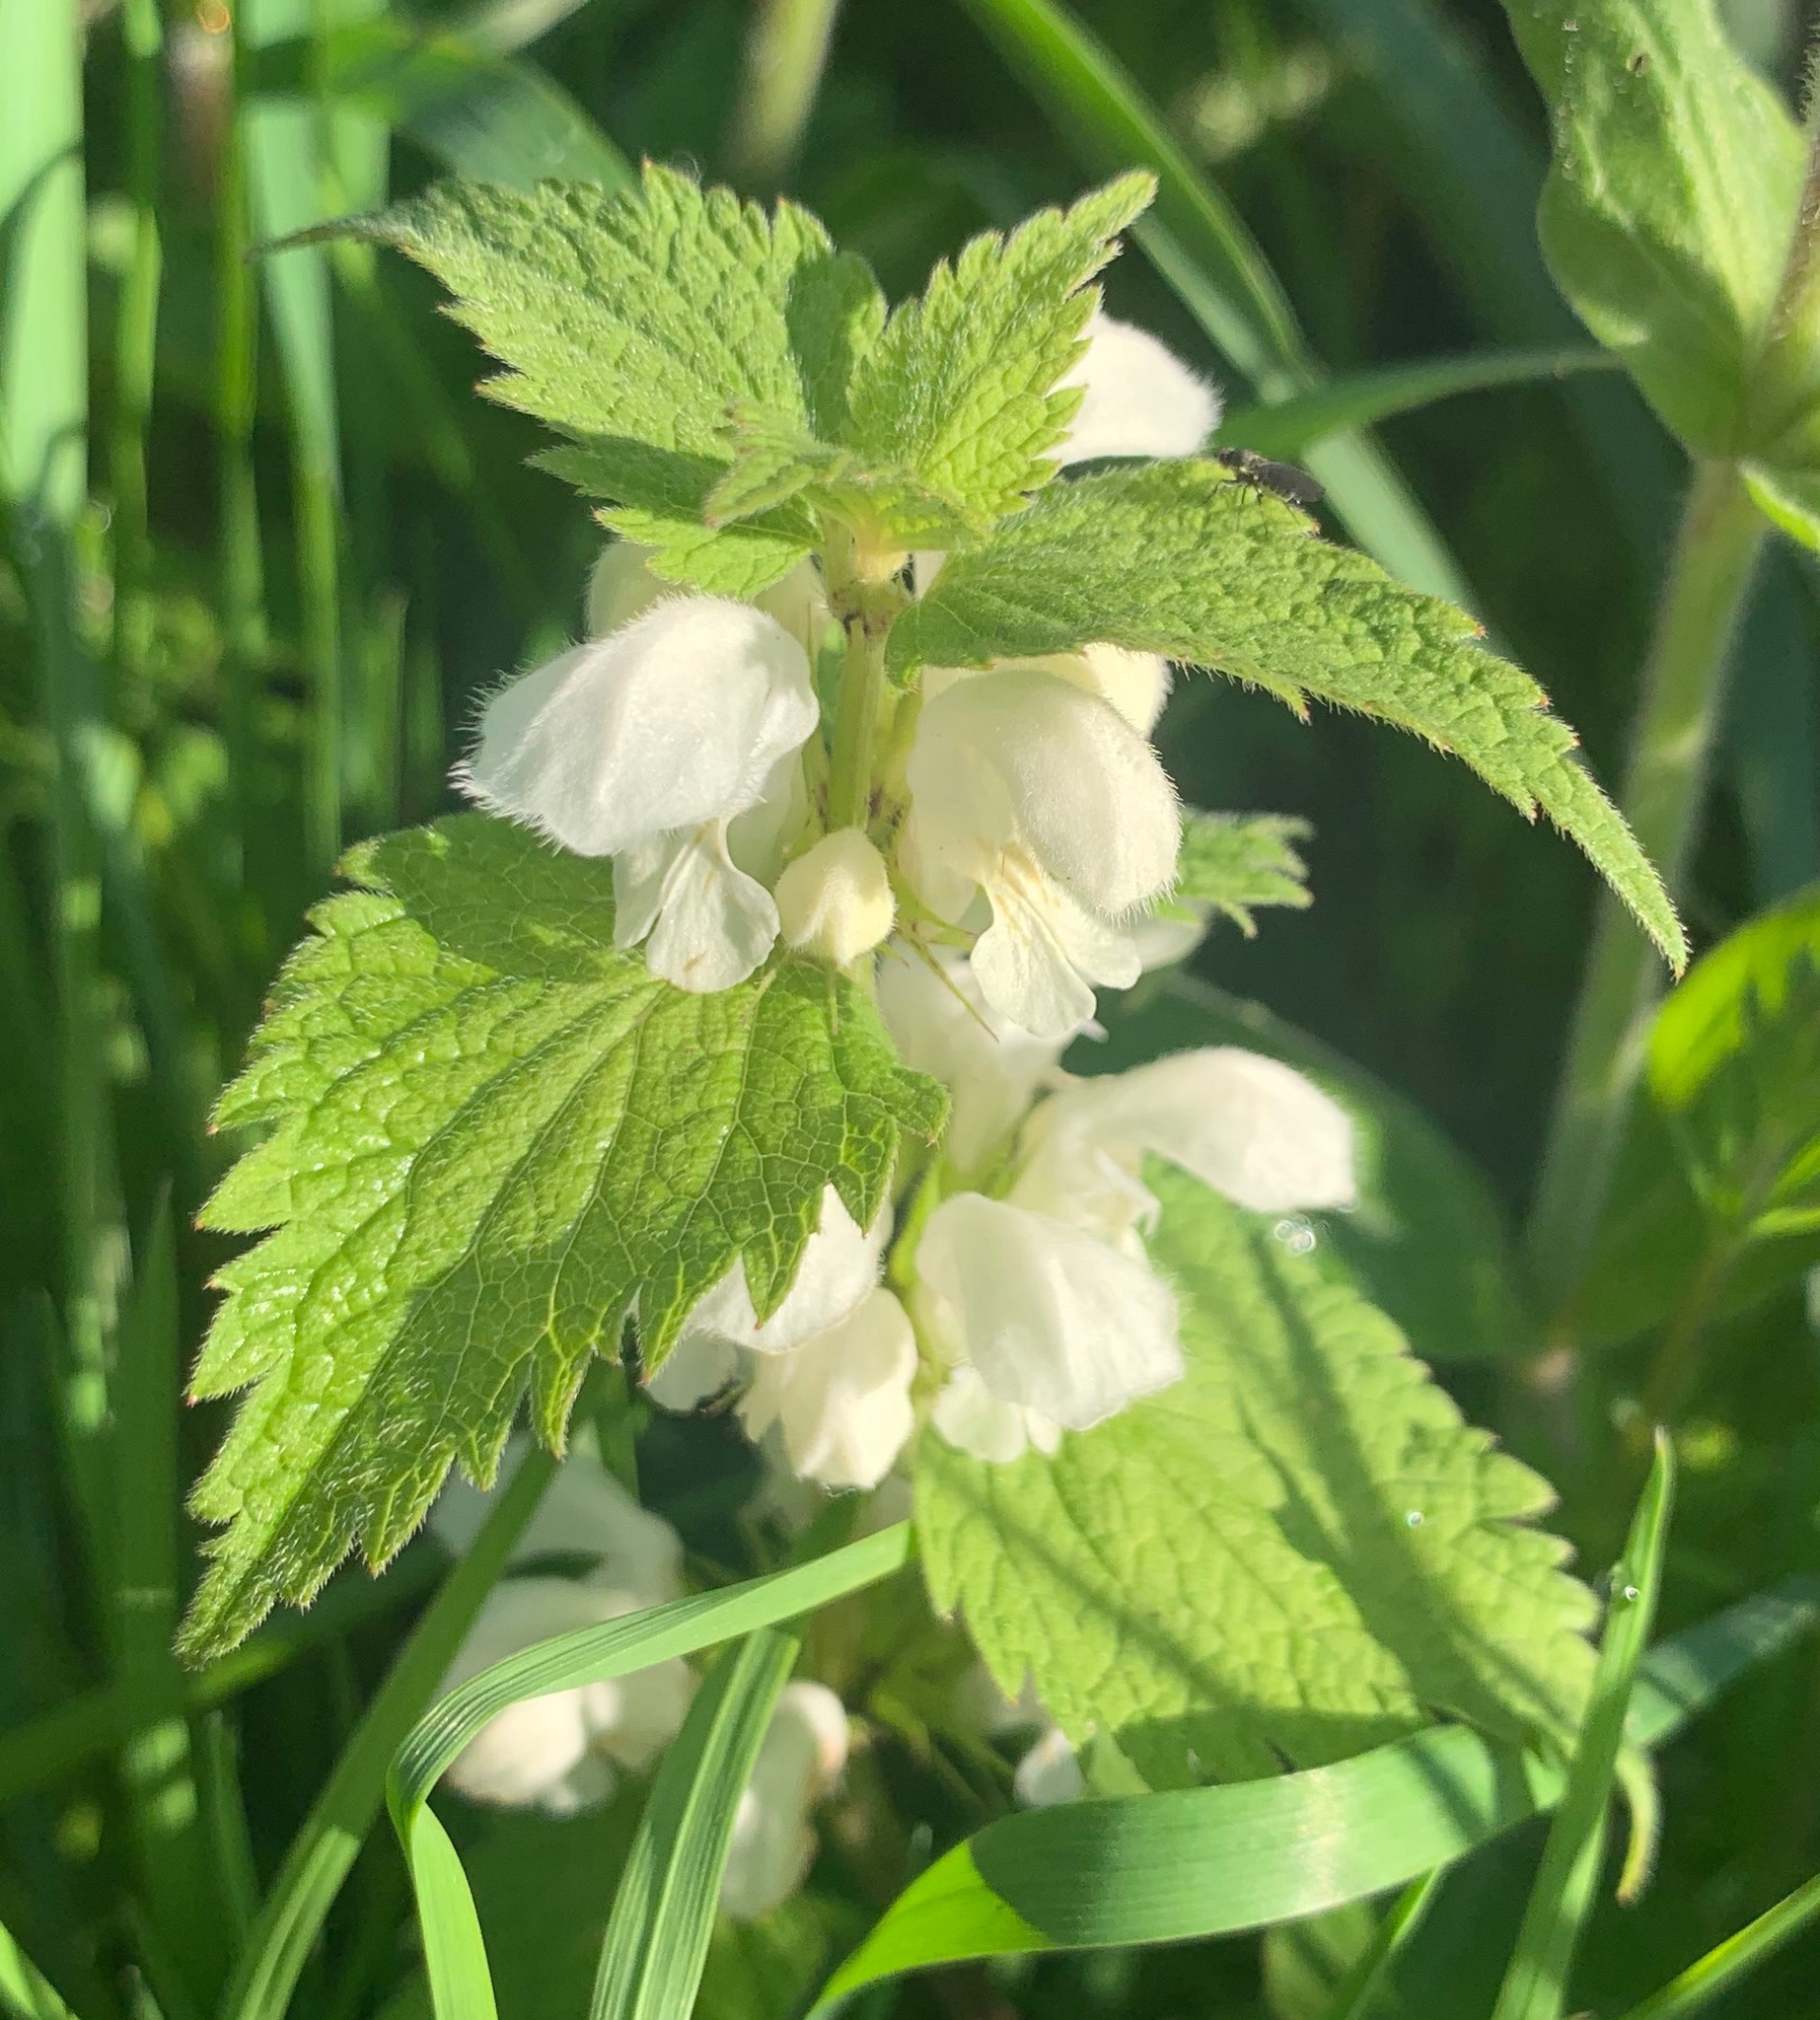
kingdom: Plantae
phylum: Tracheophyta
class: Magnoliopsida
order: Lamiales
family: Lamiaceae
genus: Lamium
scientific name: Lamium album
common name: White dead-nettle
